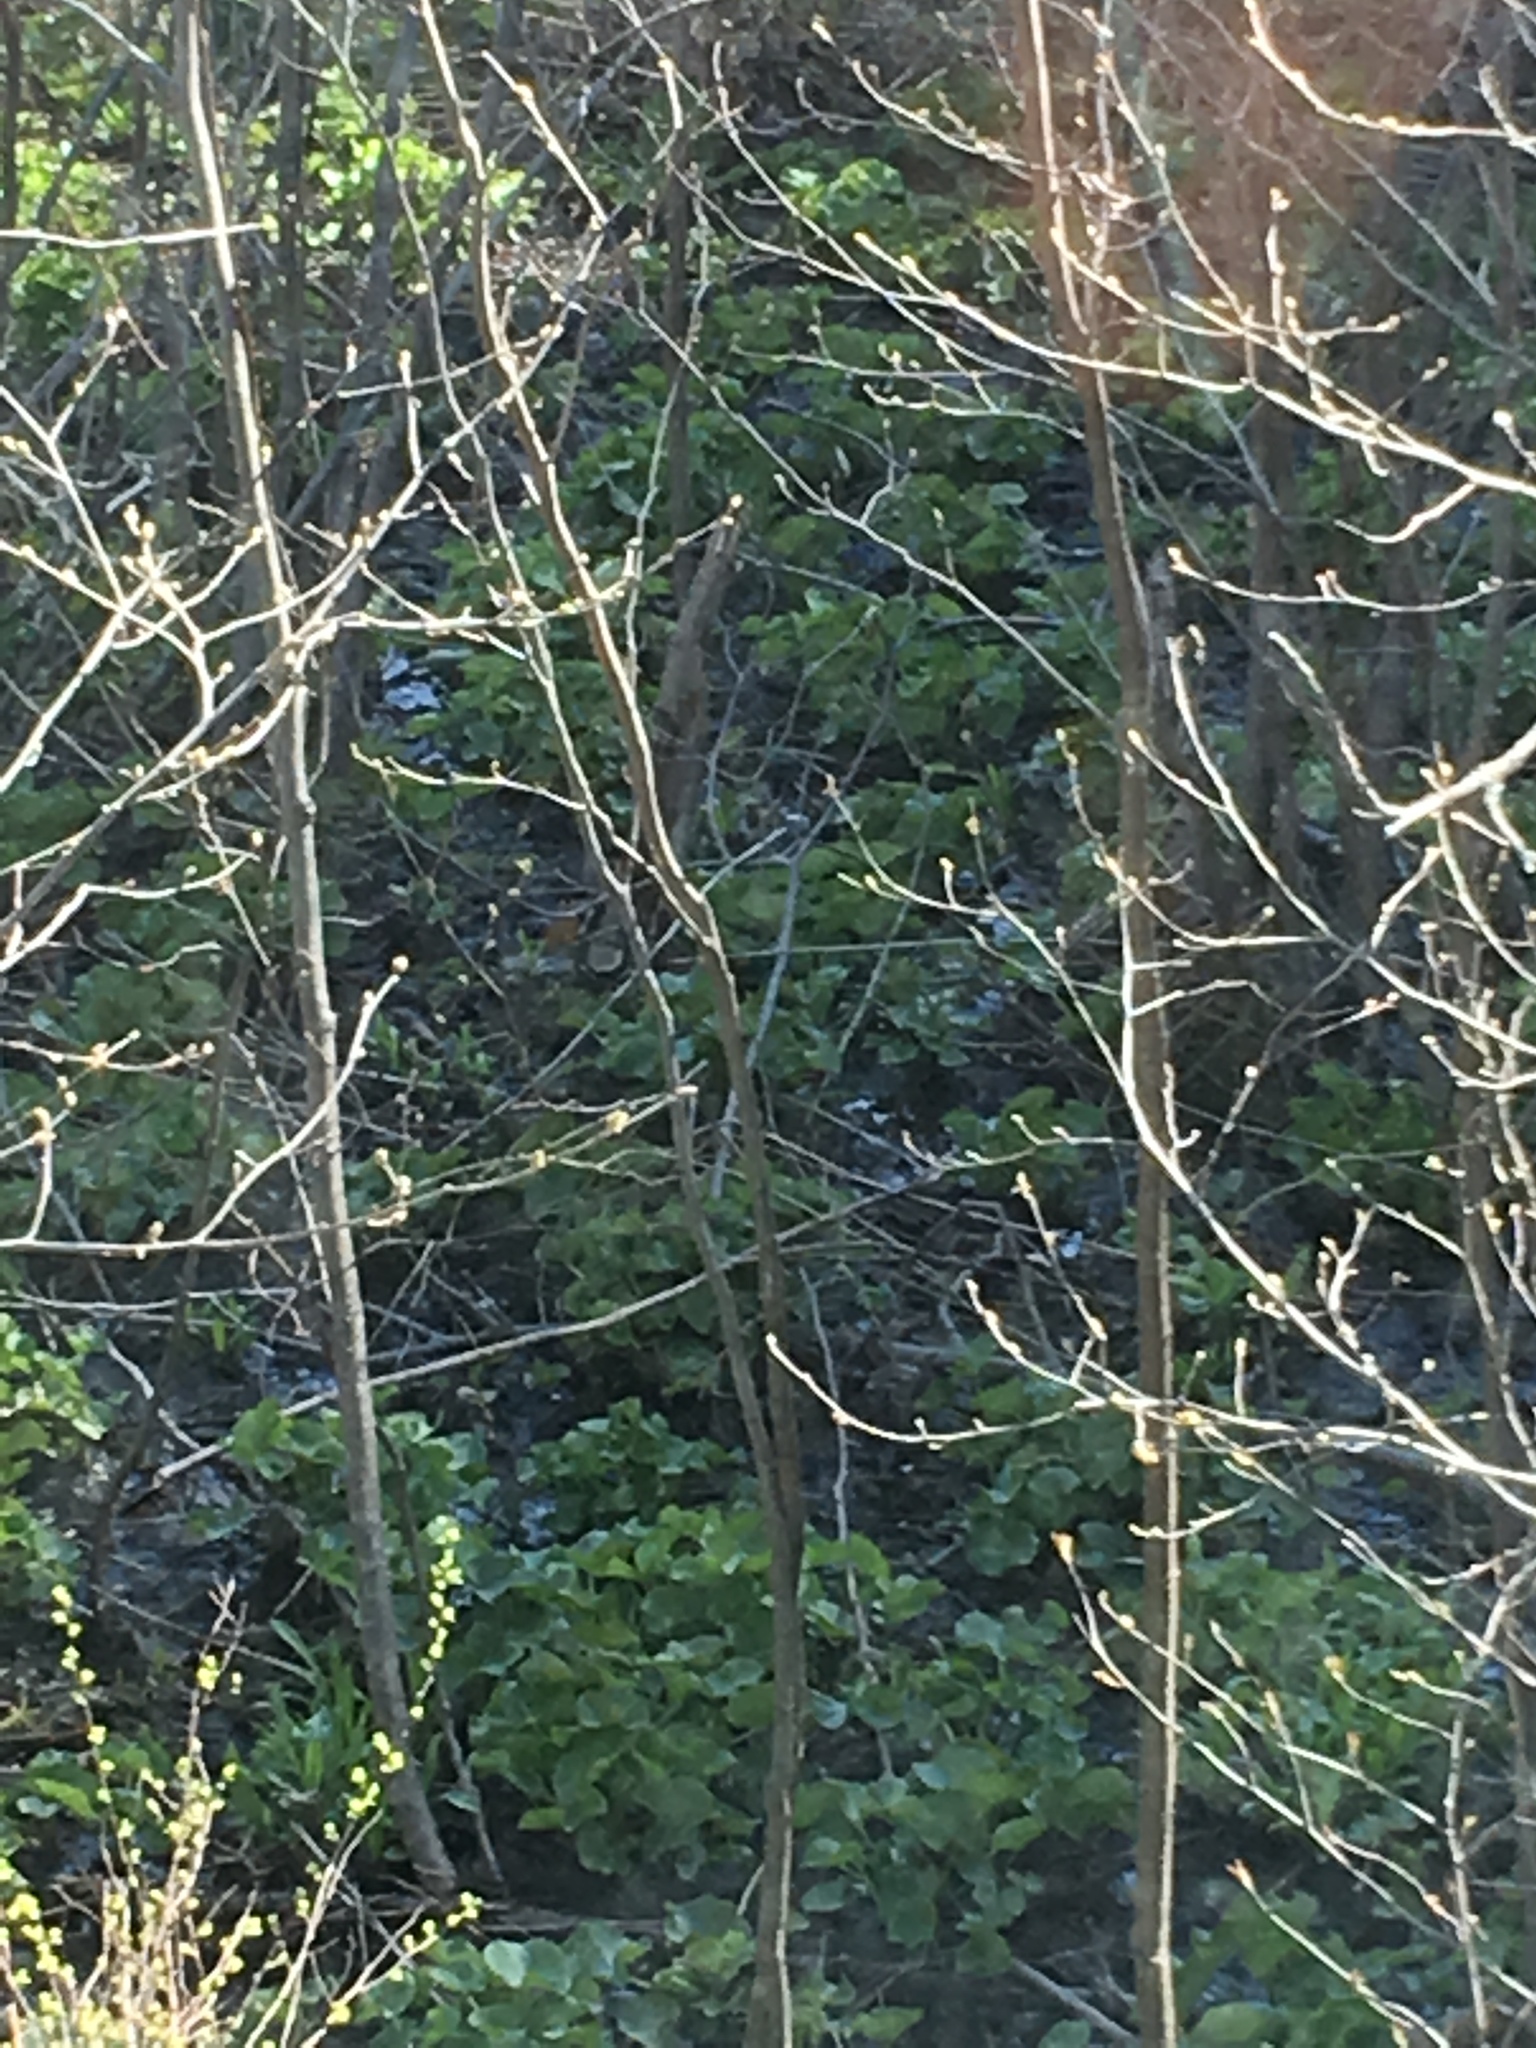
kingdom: Plantae
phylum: Tracheophyta
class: Magnoliopsida
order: Ranunculales
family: Ranunculaceae
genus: Caltha
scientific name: Caltha palustris
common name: Marsh marigold
